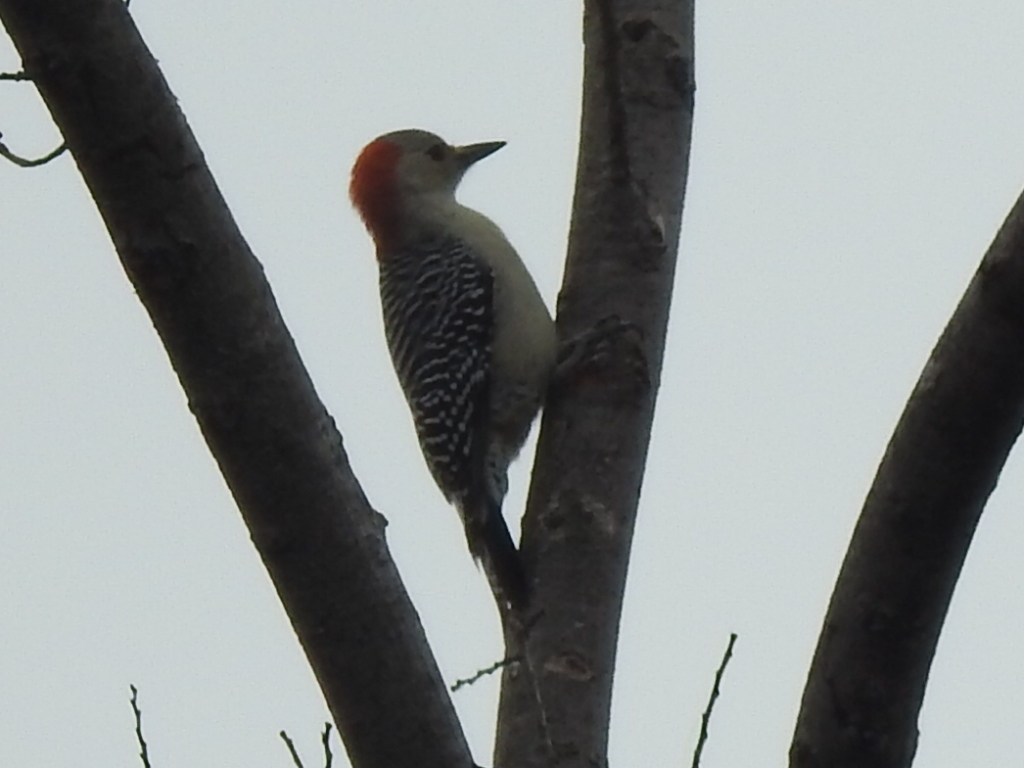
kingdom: Animalia
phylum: Chordata
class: Aves
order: Piciformes
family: Picidae
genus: Melanerpes
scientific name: Melanerpes carolinus
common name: Red-bellied woodpecker
